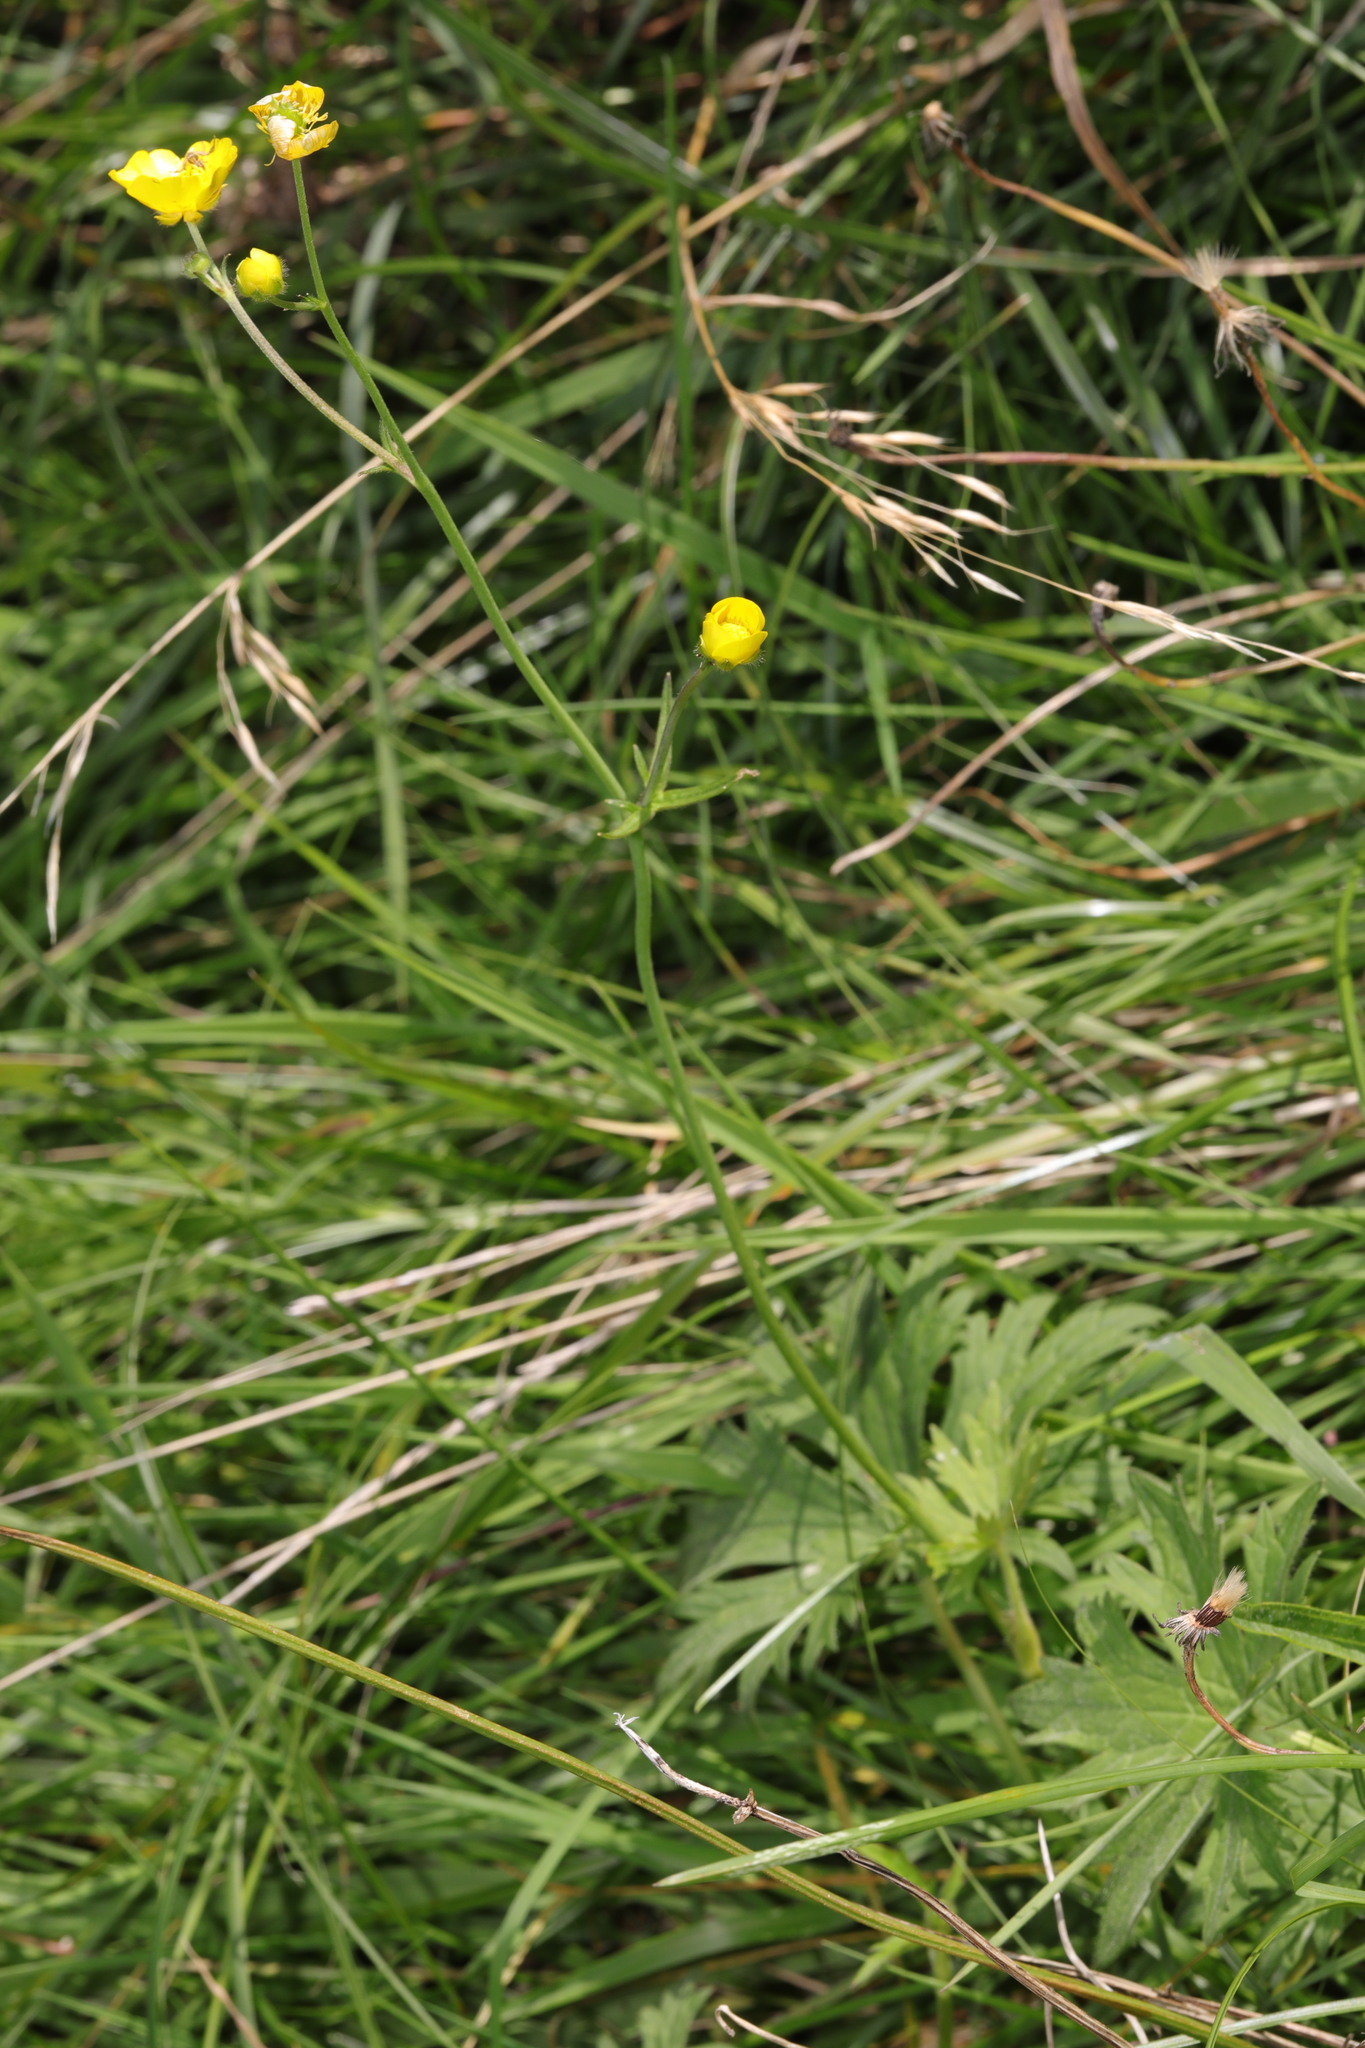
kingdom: Plantae
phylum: Tracheophyta
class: Magnoliopsida
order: Ranunculales
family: Ranunculaceae
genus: Ranunculus
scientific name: Ranunculus acris
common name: Meadow buttercup
